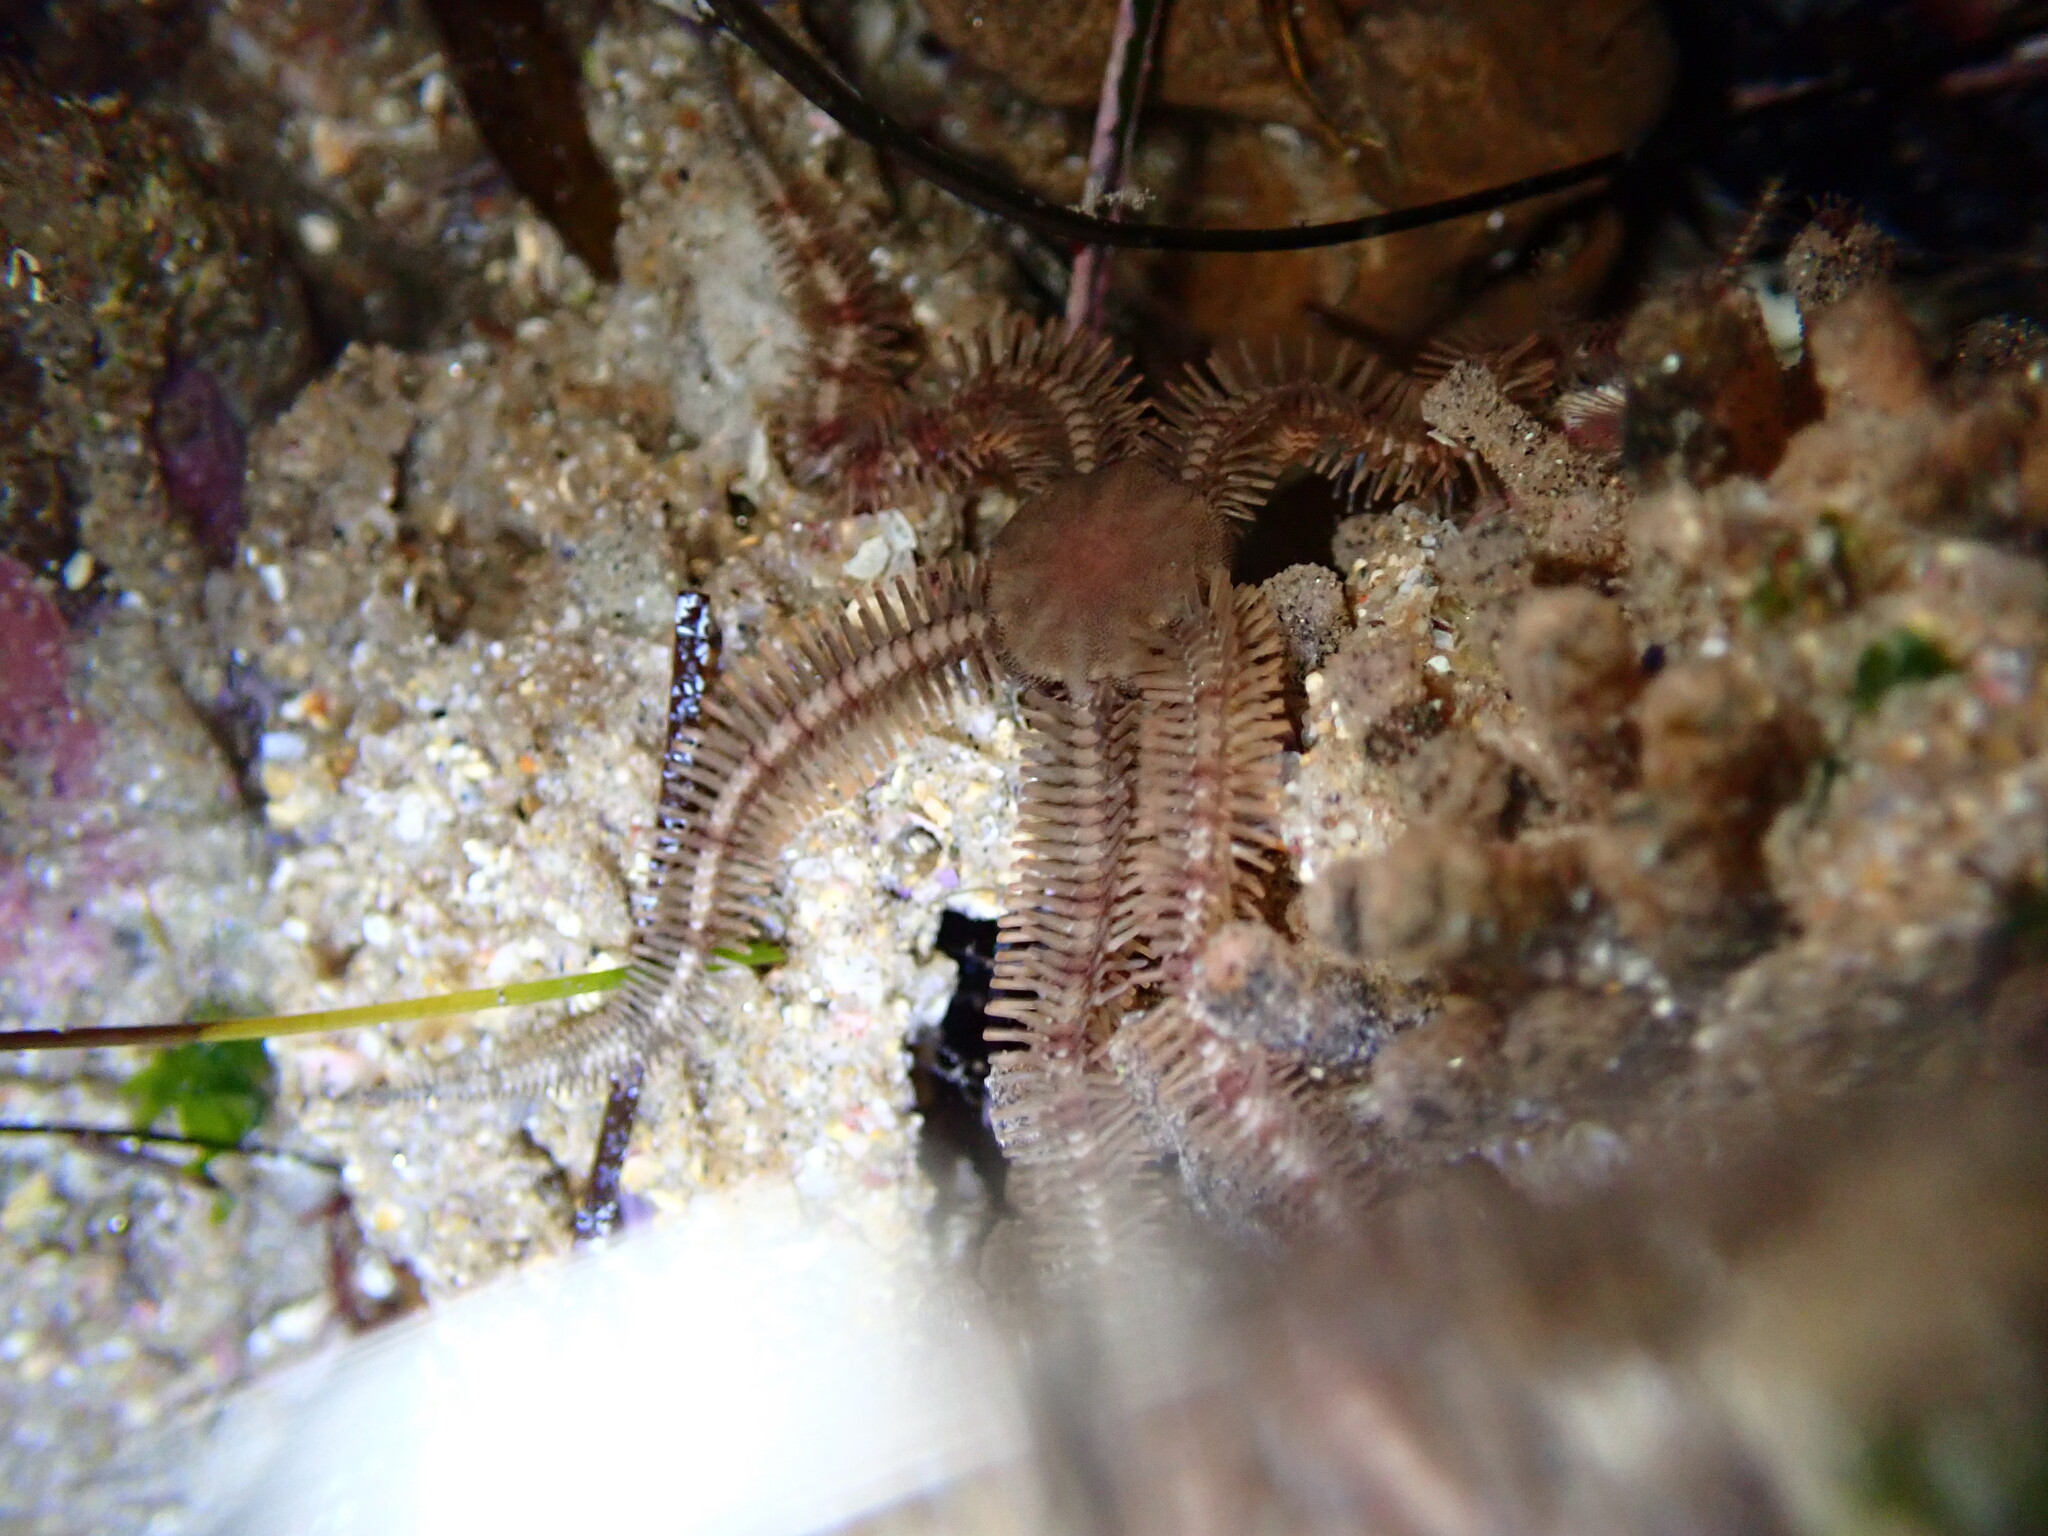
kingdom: Animalia
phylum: Echinodermata
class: Ophiuroidea
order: Ophiacanthida
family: Ophiopteridae
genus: Ophiopteris
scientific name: Ophiopteris papillosa
